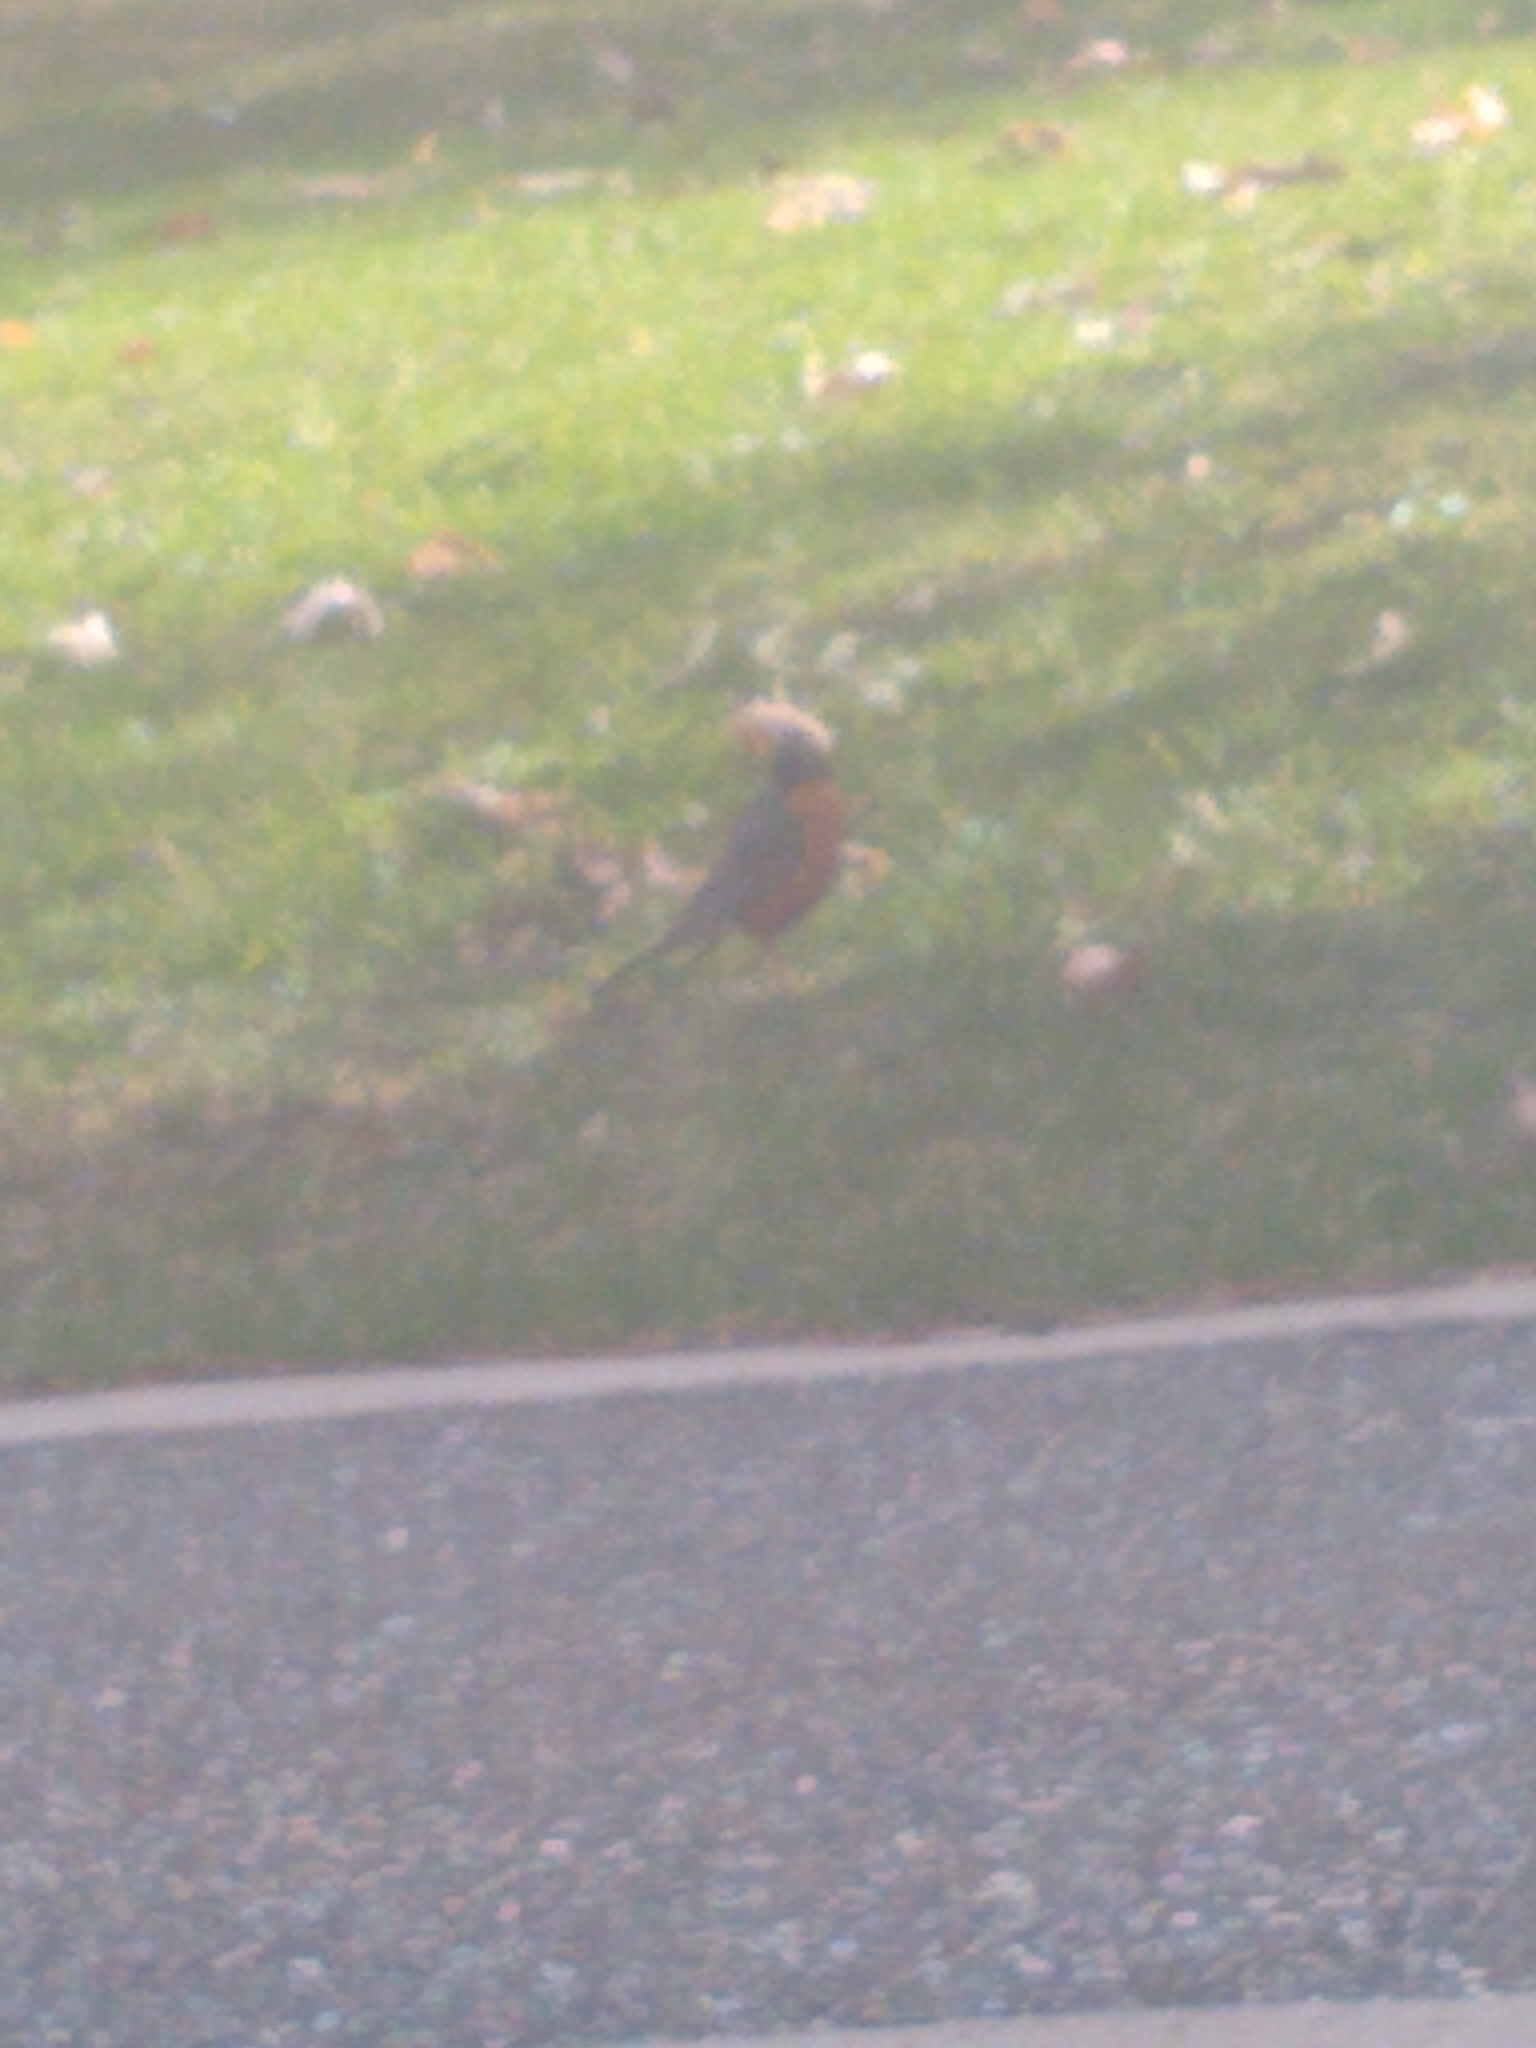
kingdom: Animalia
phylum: Chordata
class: Aves
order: Passeriformes
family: Turdidae
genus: Turdus
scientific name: Turdus migratorius
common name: American robin
